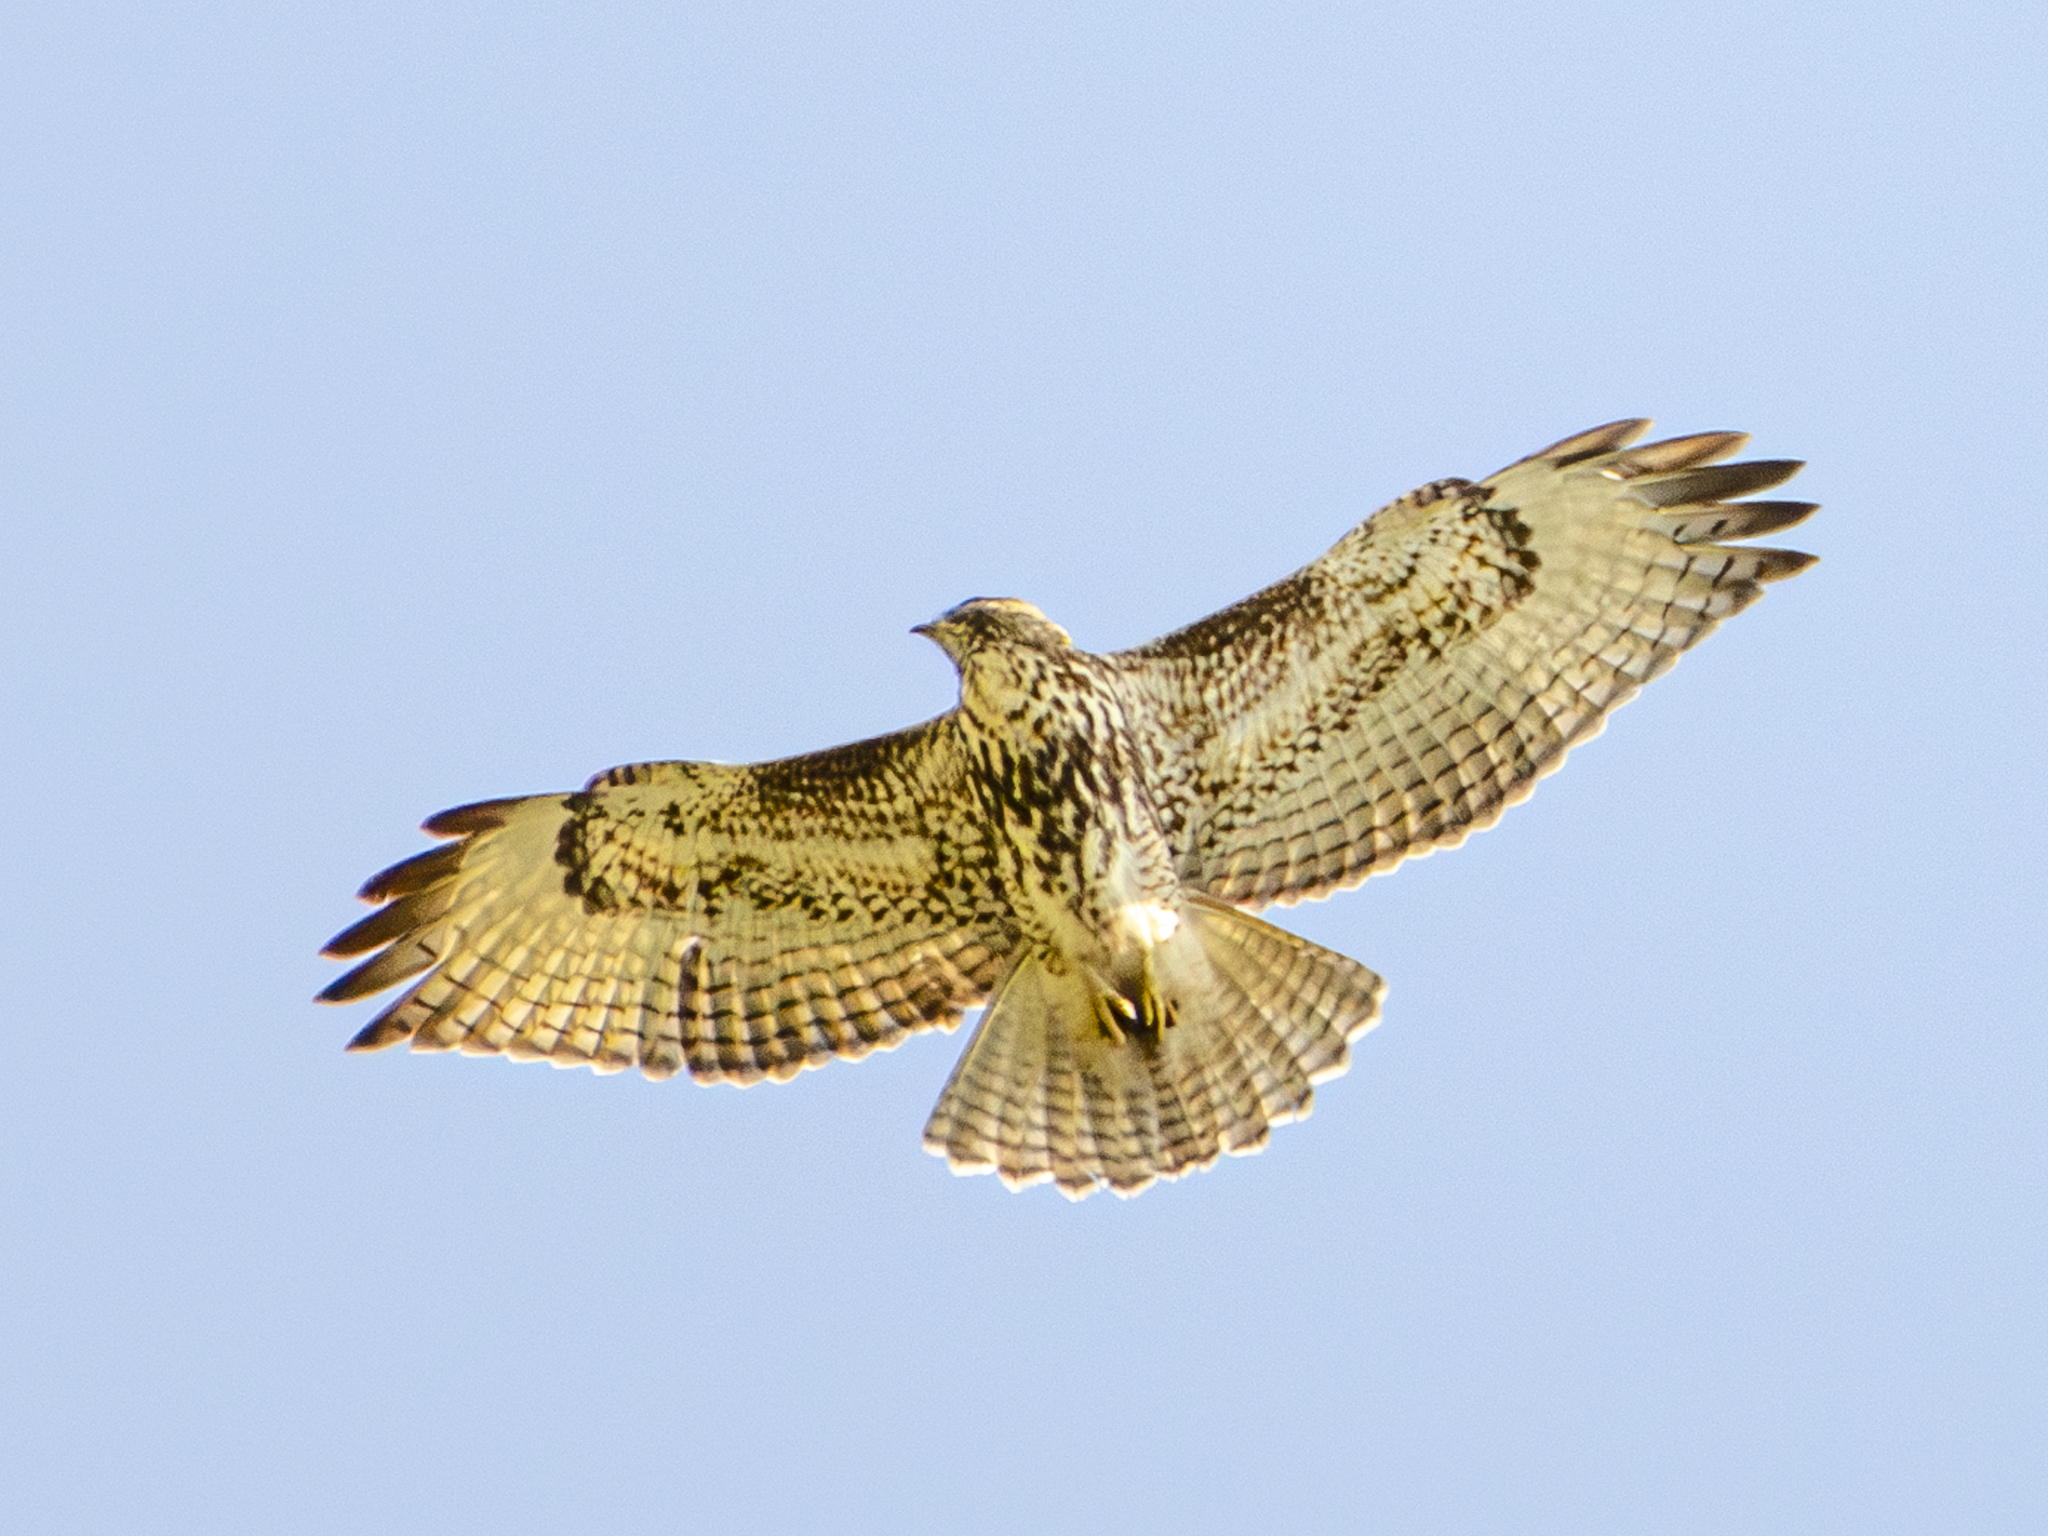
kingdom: Animalia
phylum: Chordata
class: Aves
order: Accipitriformes
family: Accipitridae
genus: Buteo
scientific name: Buteo jamaicensis
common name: Red-tailed hawk
